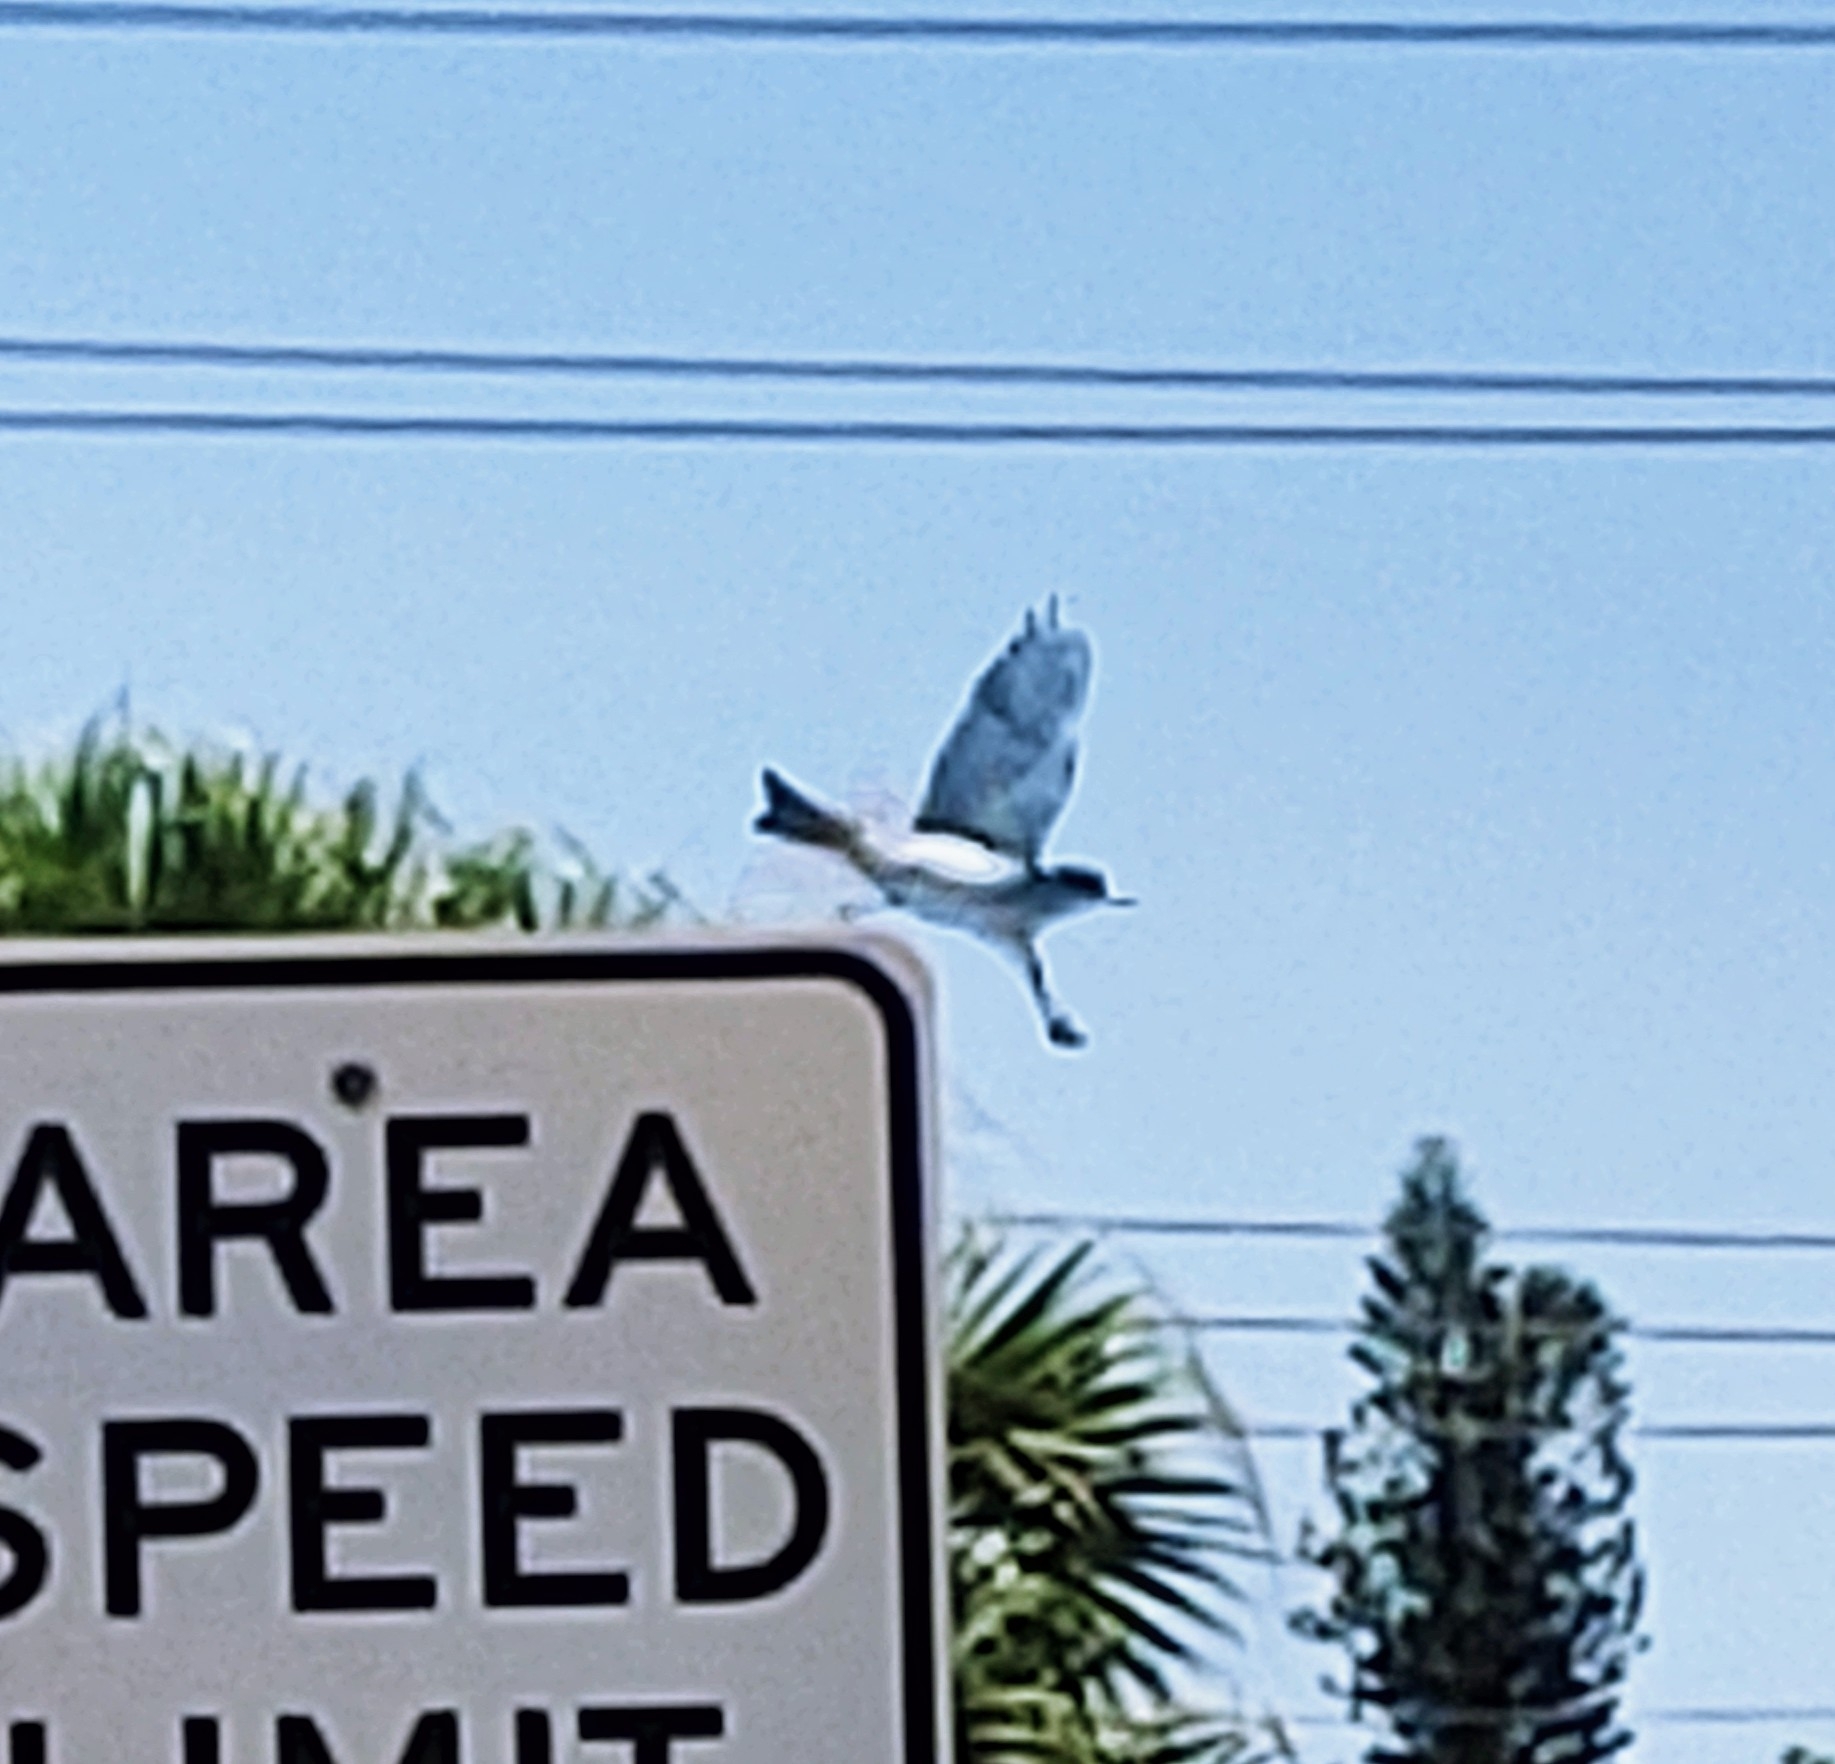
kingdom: Animalia
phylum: Chordata
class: Aves
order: Passeriformes
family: Tyrannidae
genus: Tyrannus
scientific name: Tyrannus dominicensis
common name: Gray kingbird
